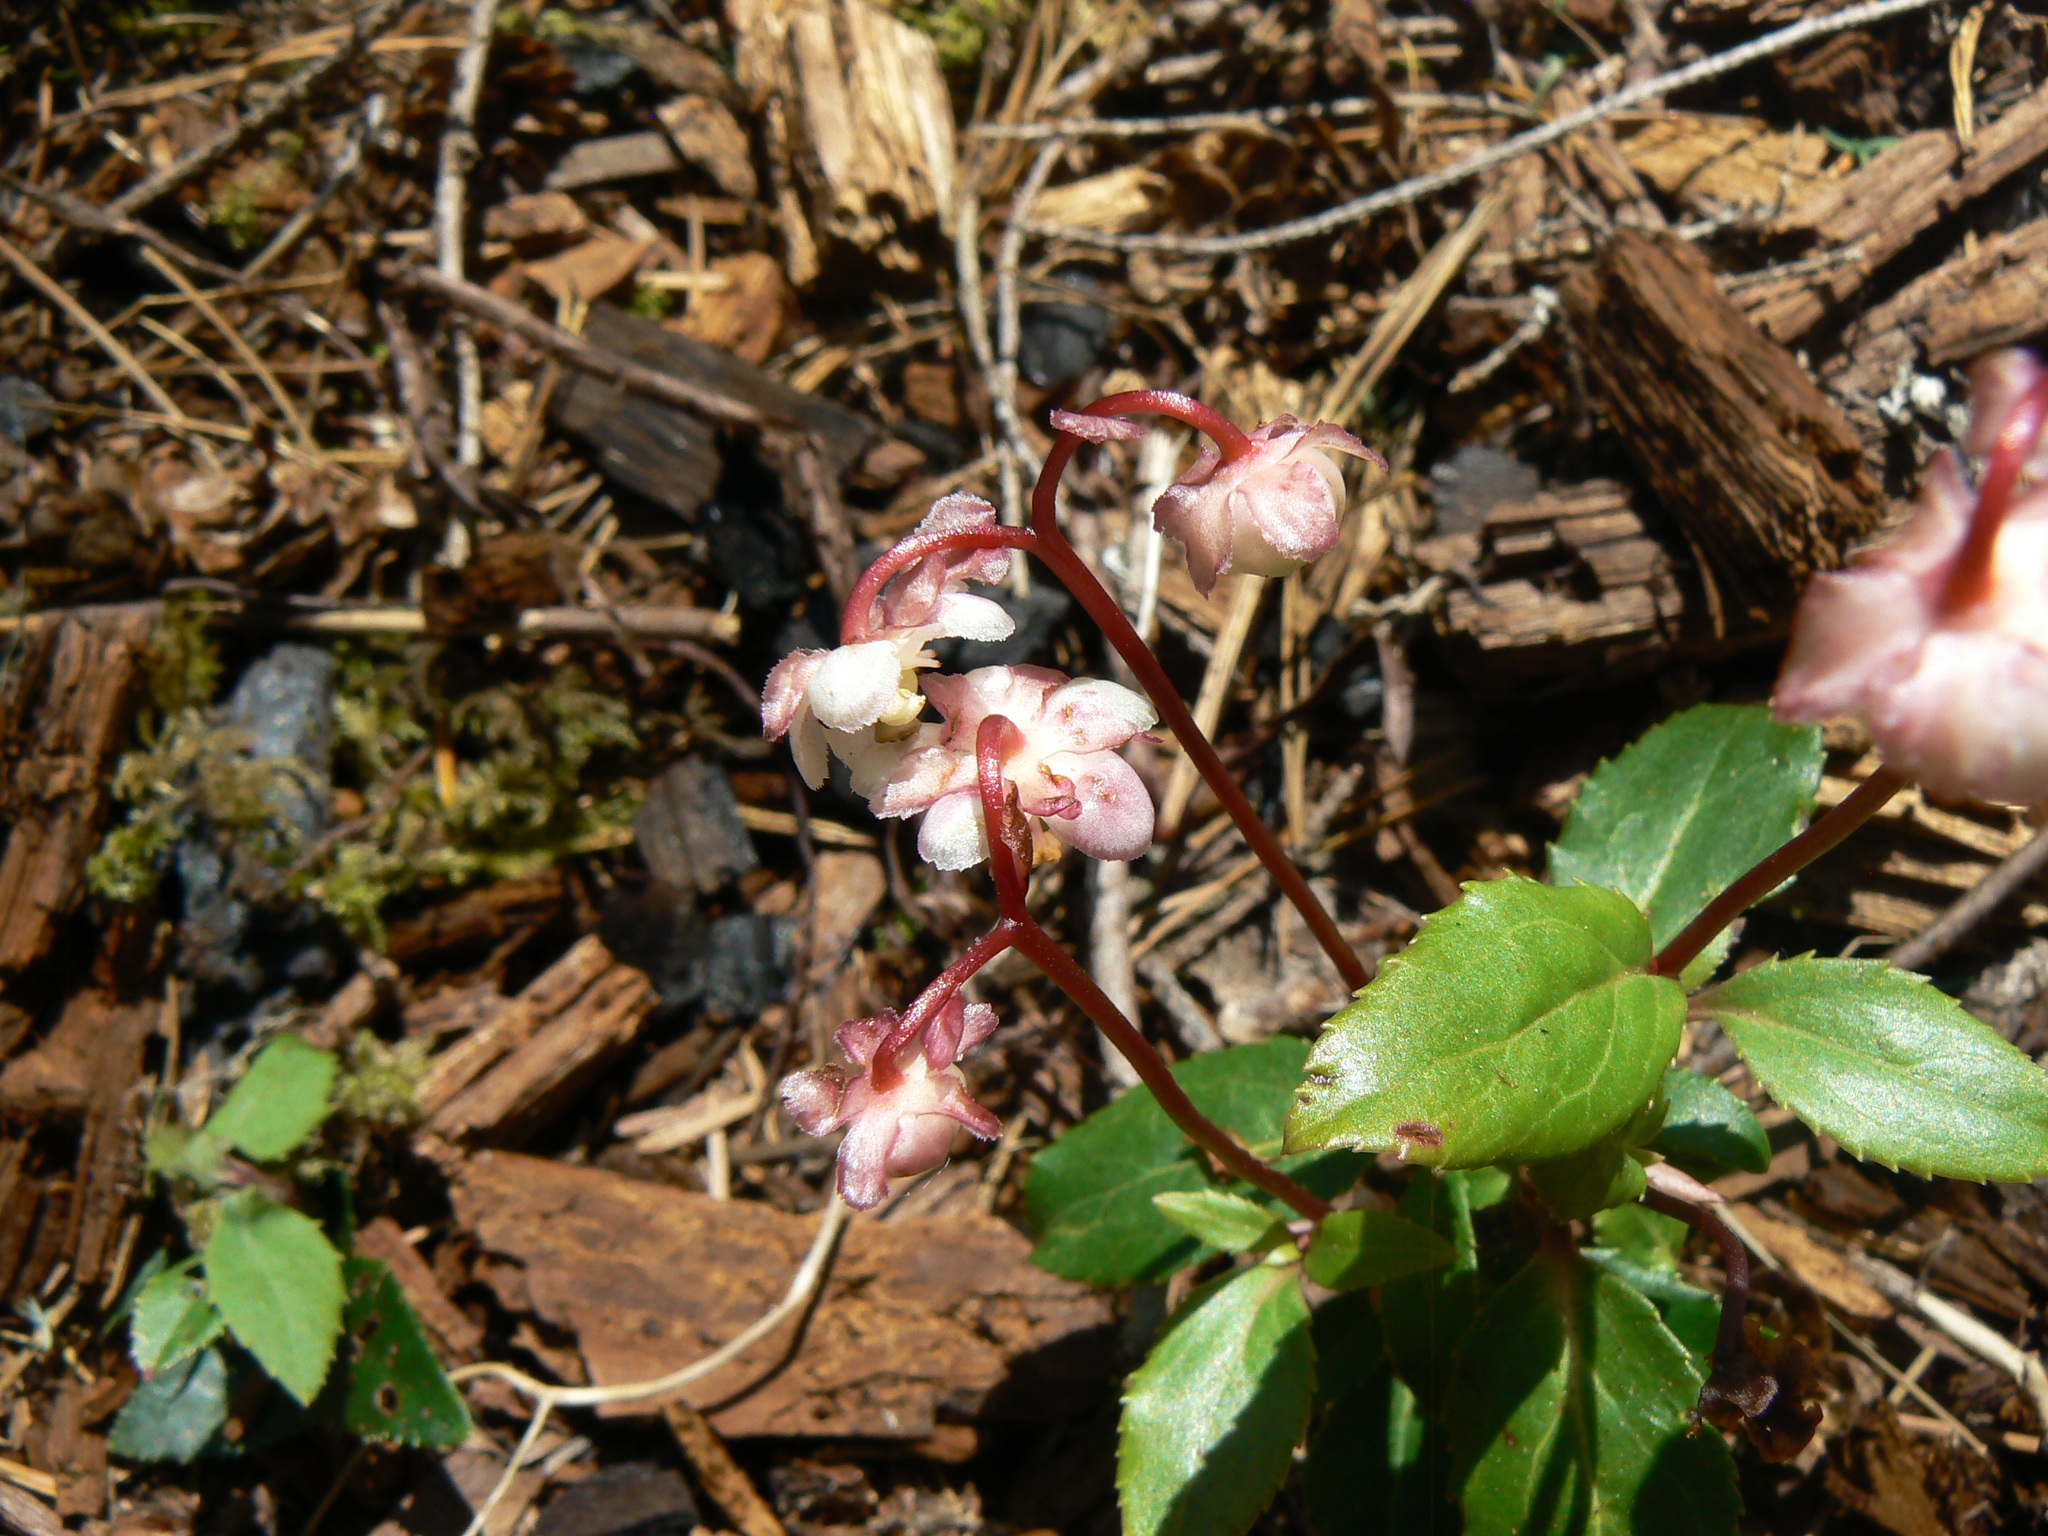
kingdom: Plantae
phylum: Tracheophyta
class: Magnoliopsida
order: Ericales
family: Ericaceae
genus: Chimaphila
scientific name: Chimaphila menziesii
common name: Menzies' pipsissewa
